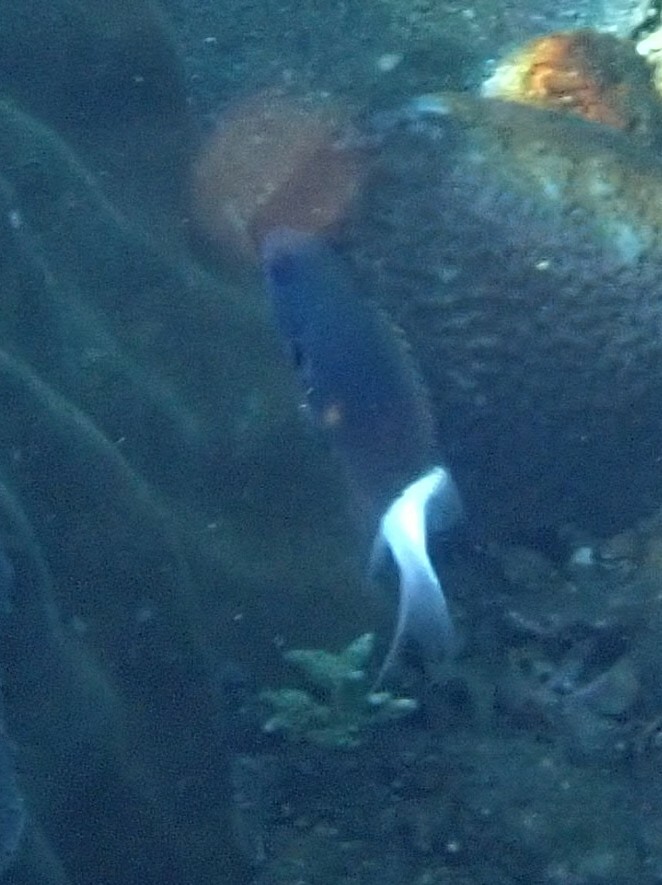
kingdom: Animalia
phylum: Chordata
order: Perciformes
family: Pomacentridae
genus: Pycnochromis
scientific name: Pycnochromis margaritifer
